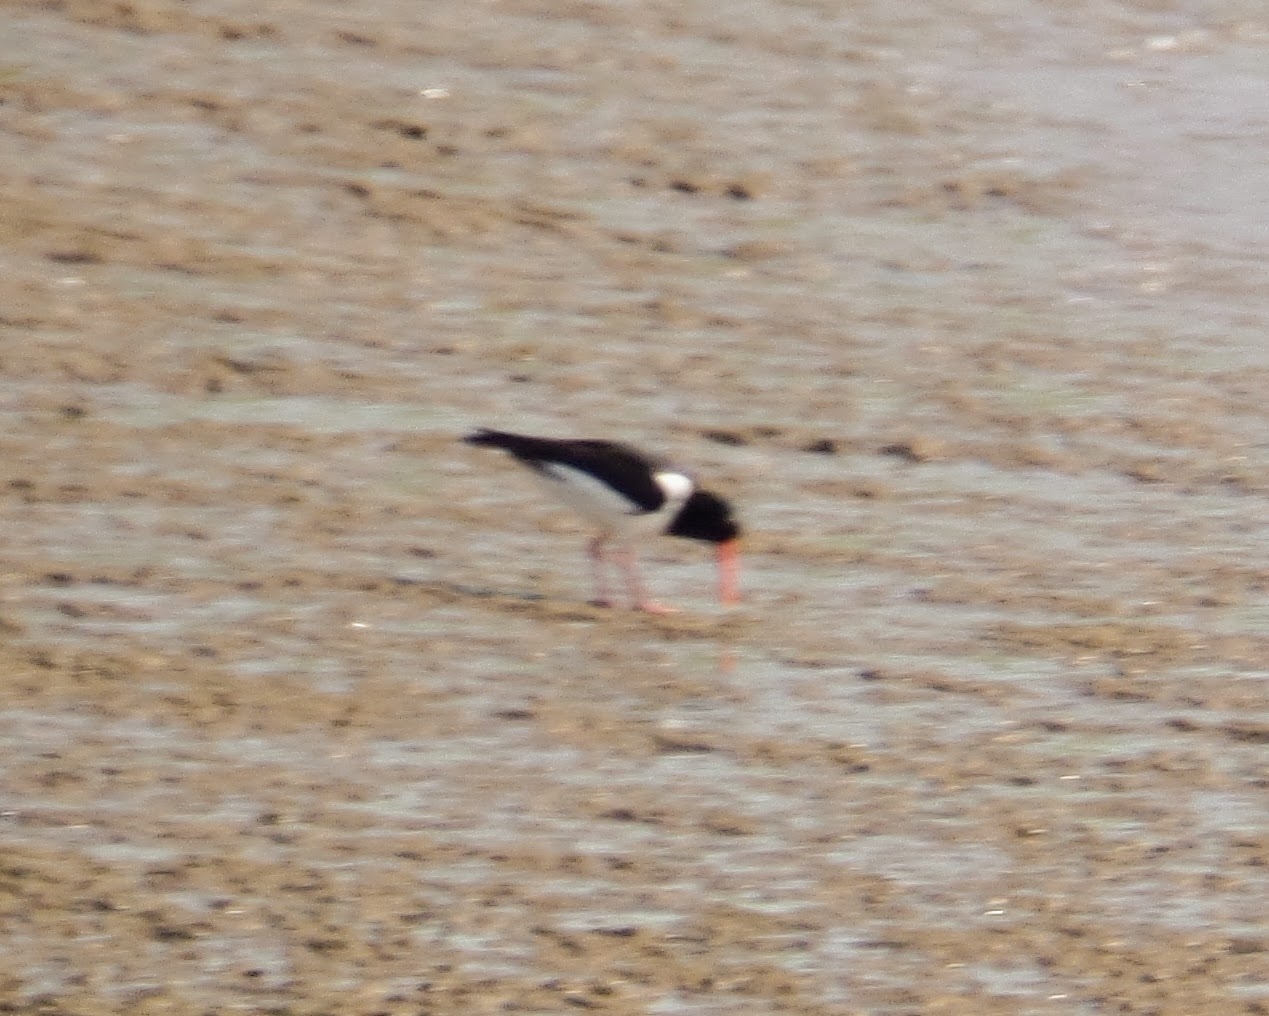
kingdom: Animalia
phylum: Chordata
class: Aves
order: Charadriiformes
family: Haematopodidae
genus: Haematopus
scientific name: Haematopus ostralegus
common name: Eurasian oystercatcher
